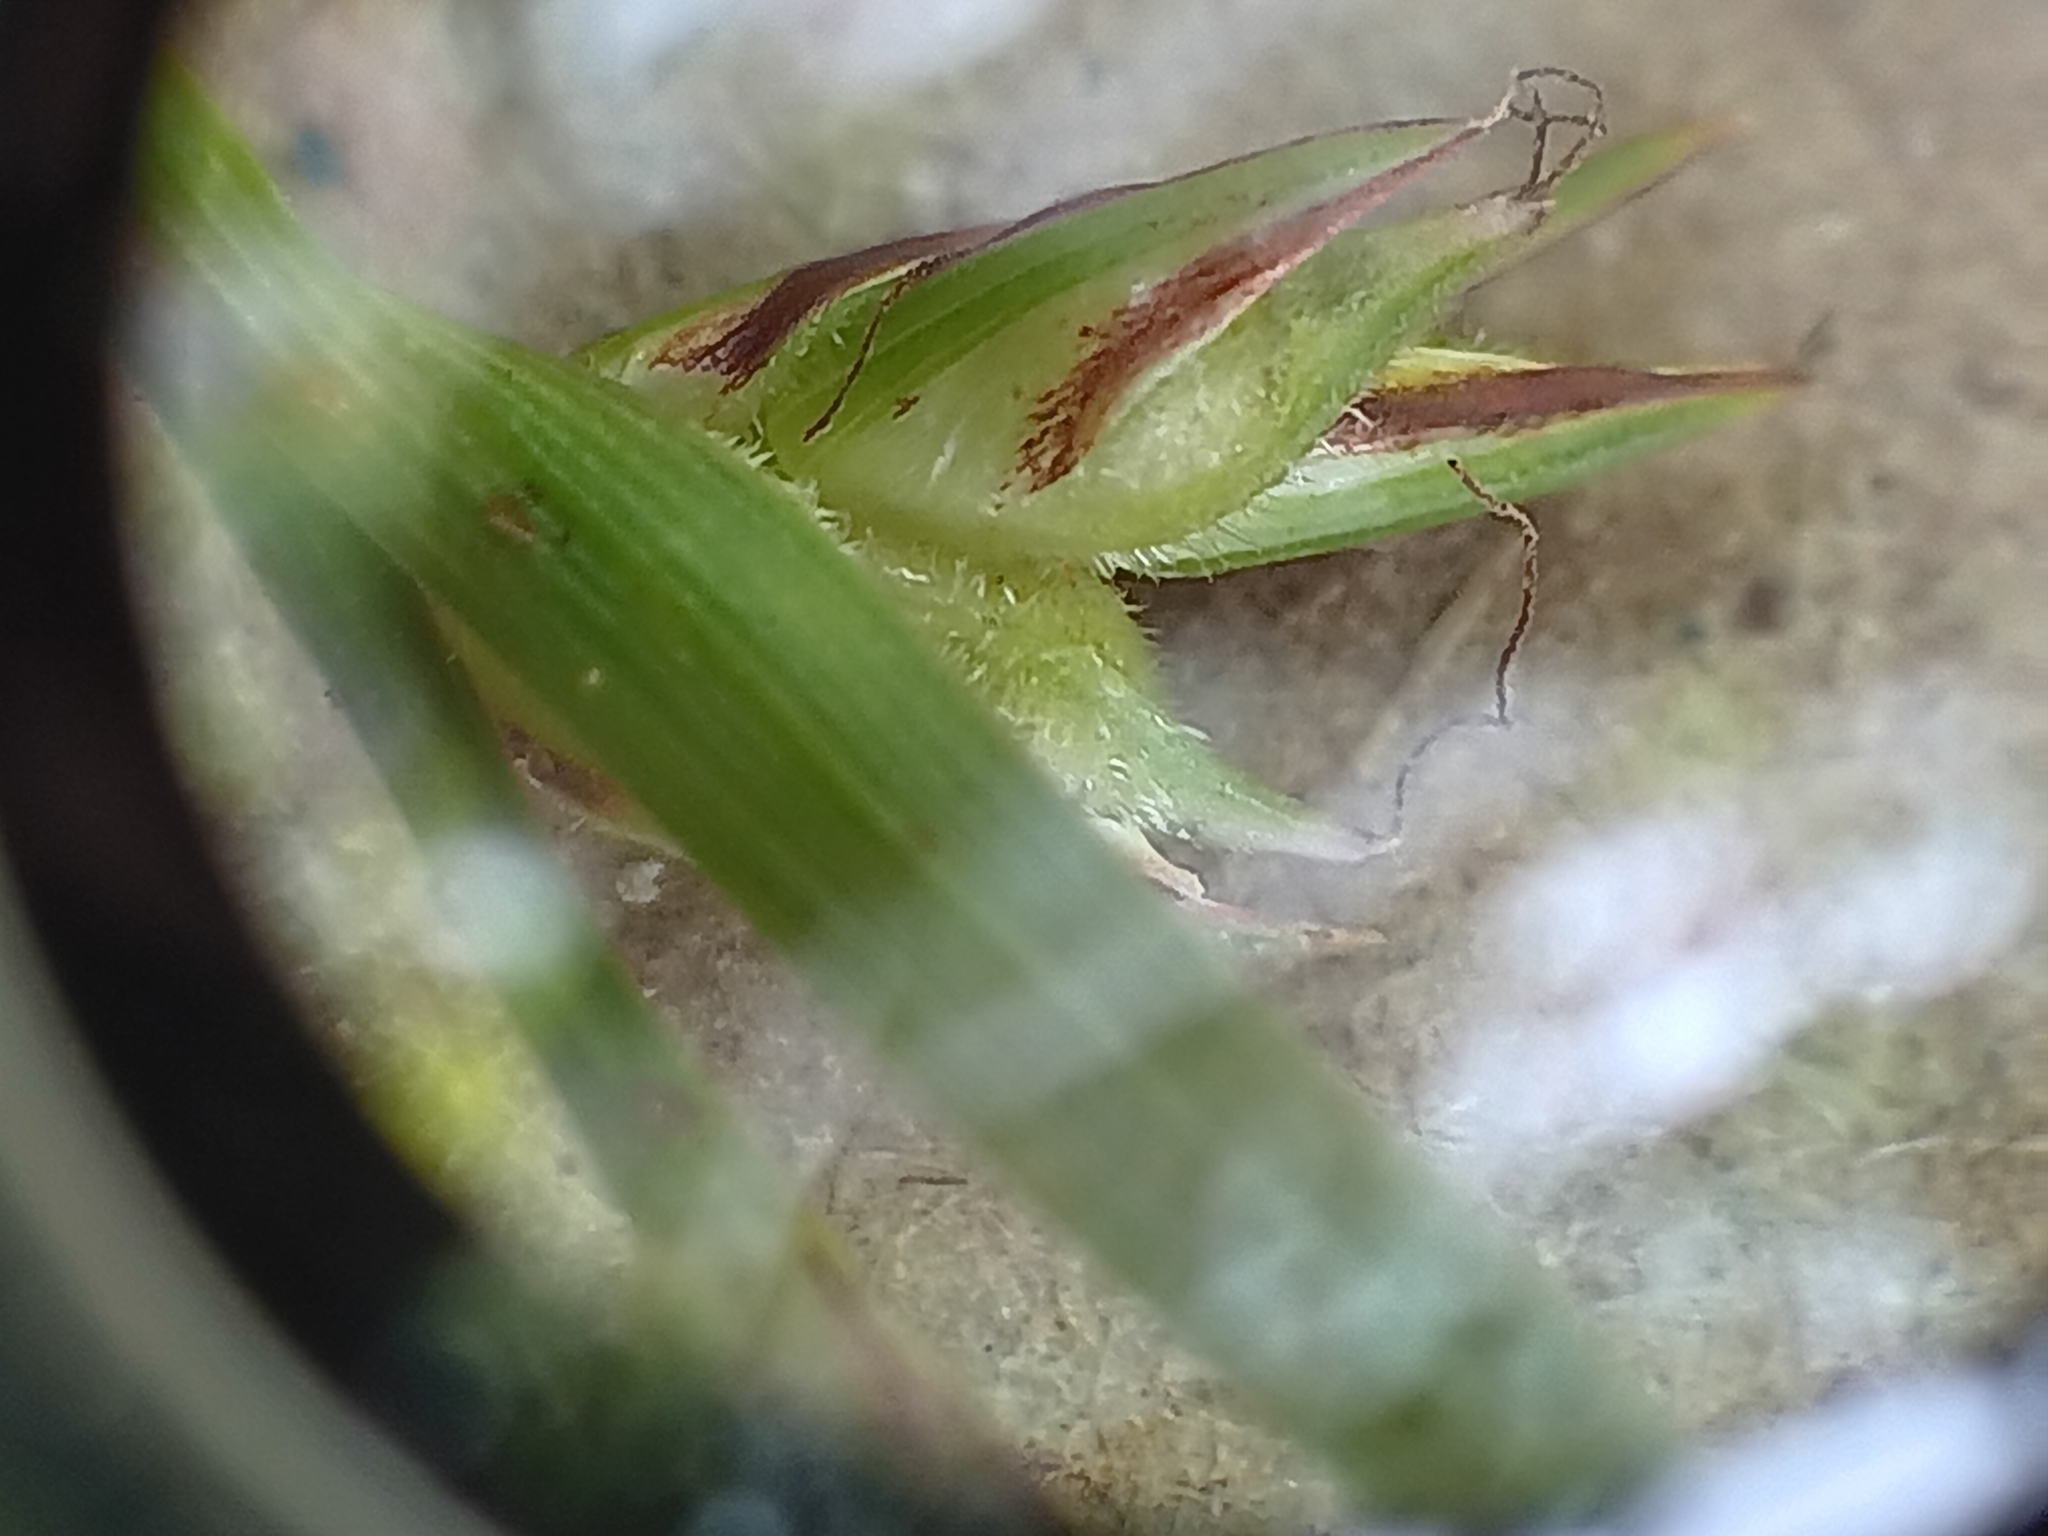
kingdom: Plantae
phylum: Tracheophyta
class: Liliopsida
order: Poales
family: Cyperaceae
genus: Carex
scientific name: Carex rossii
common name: Ross' sedge
